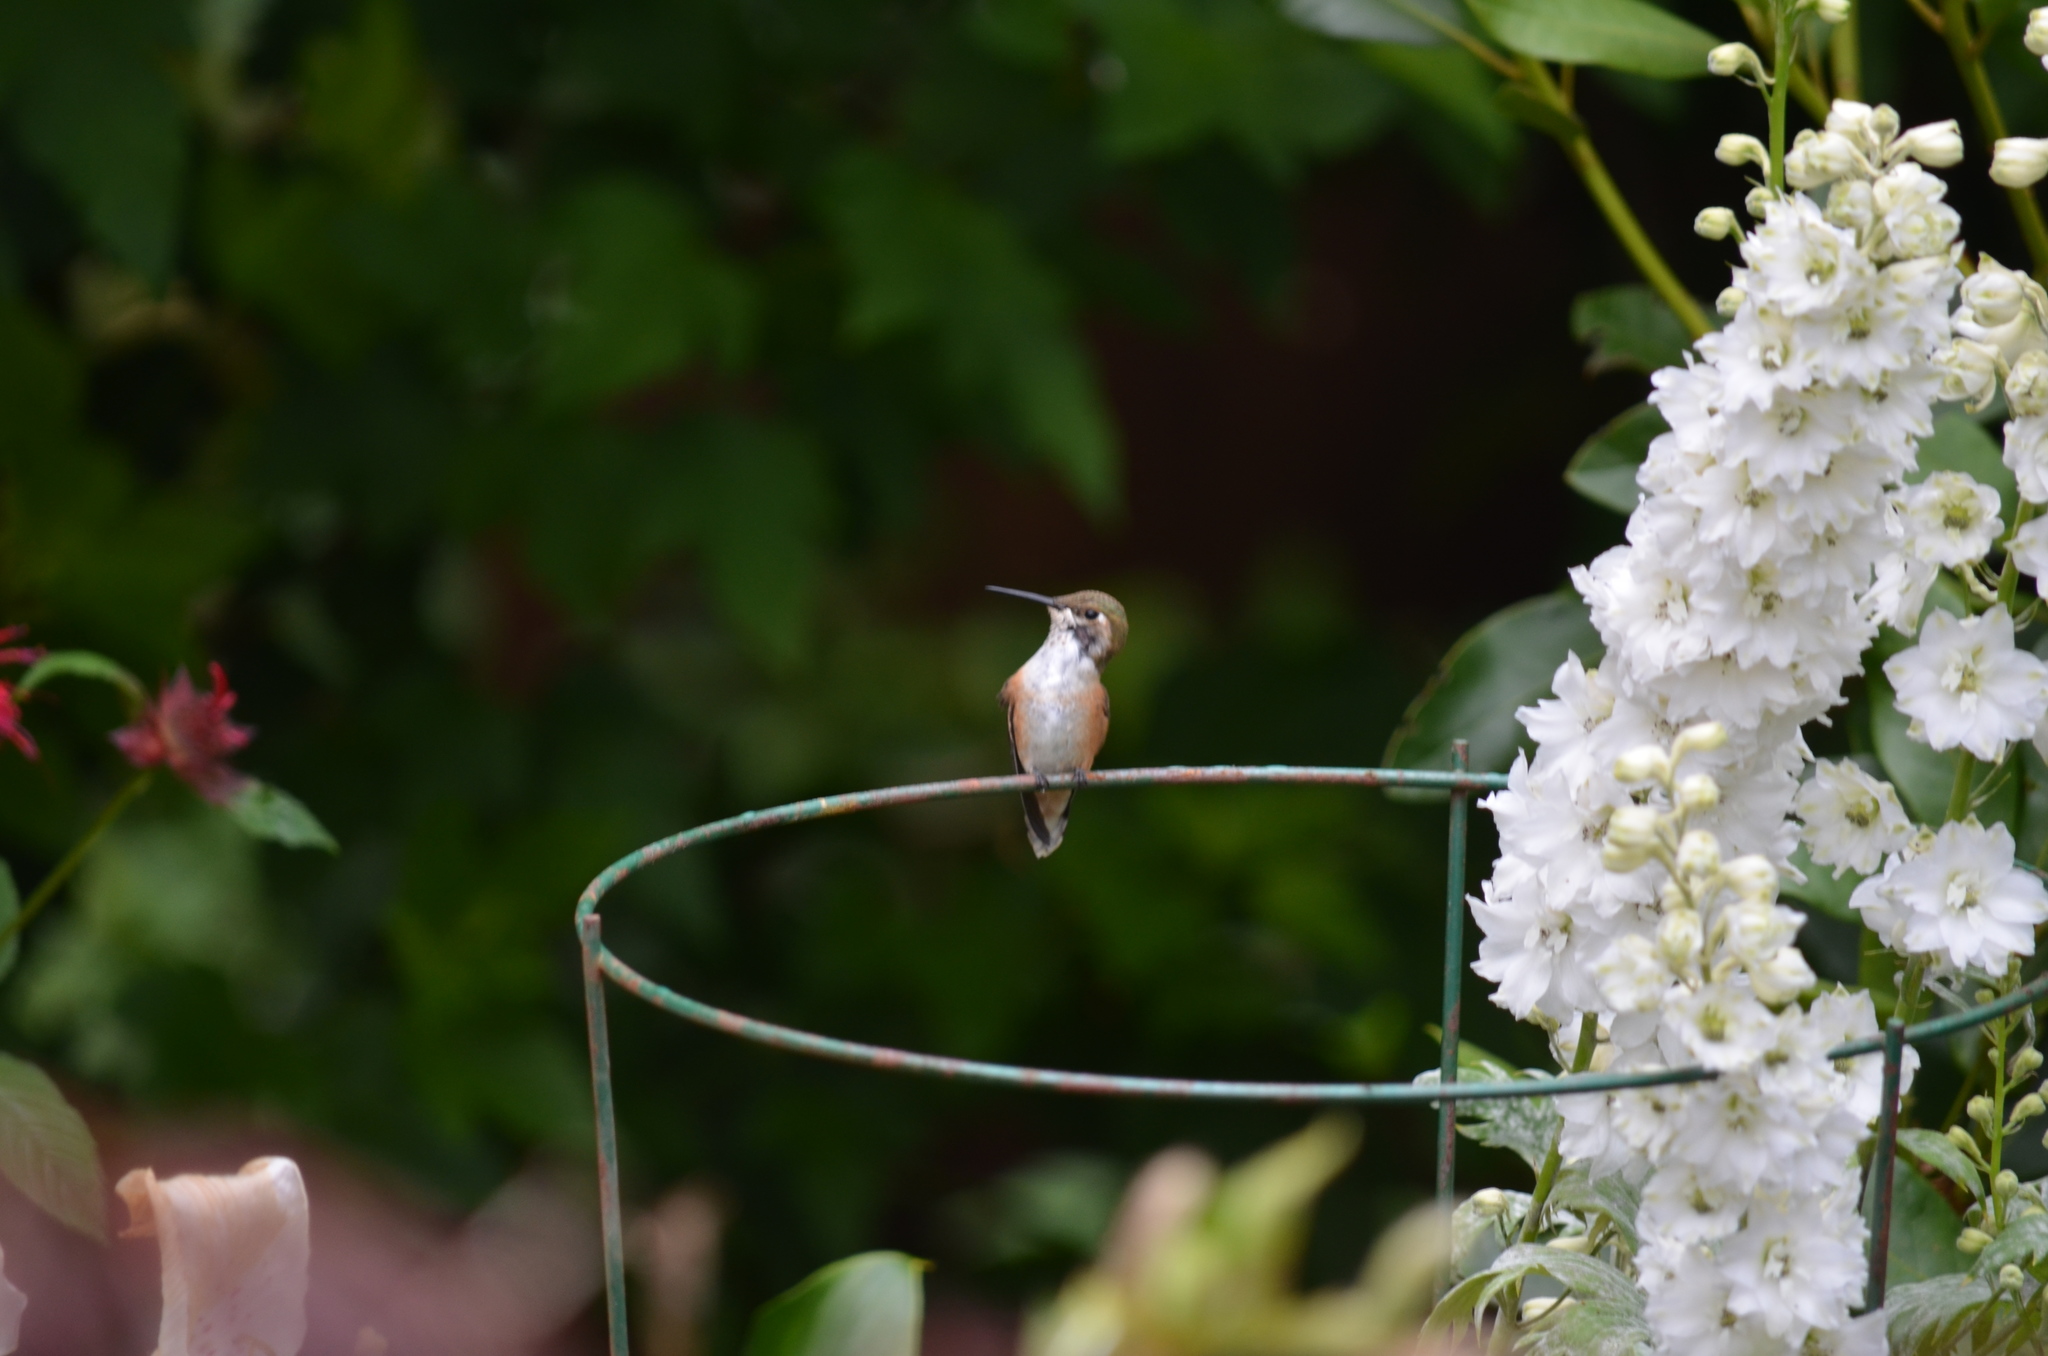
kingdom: Animalia
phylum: Chordata
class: Aves
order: Apodiformes
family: Trochilidae
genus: Selasphorus
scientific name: Selasphorus rufus
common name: Rufous hummingbird
